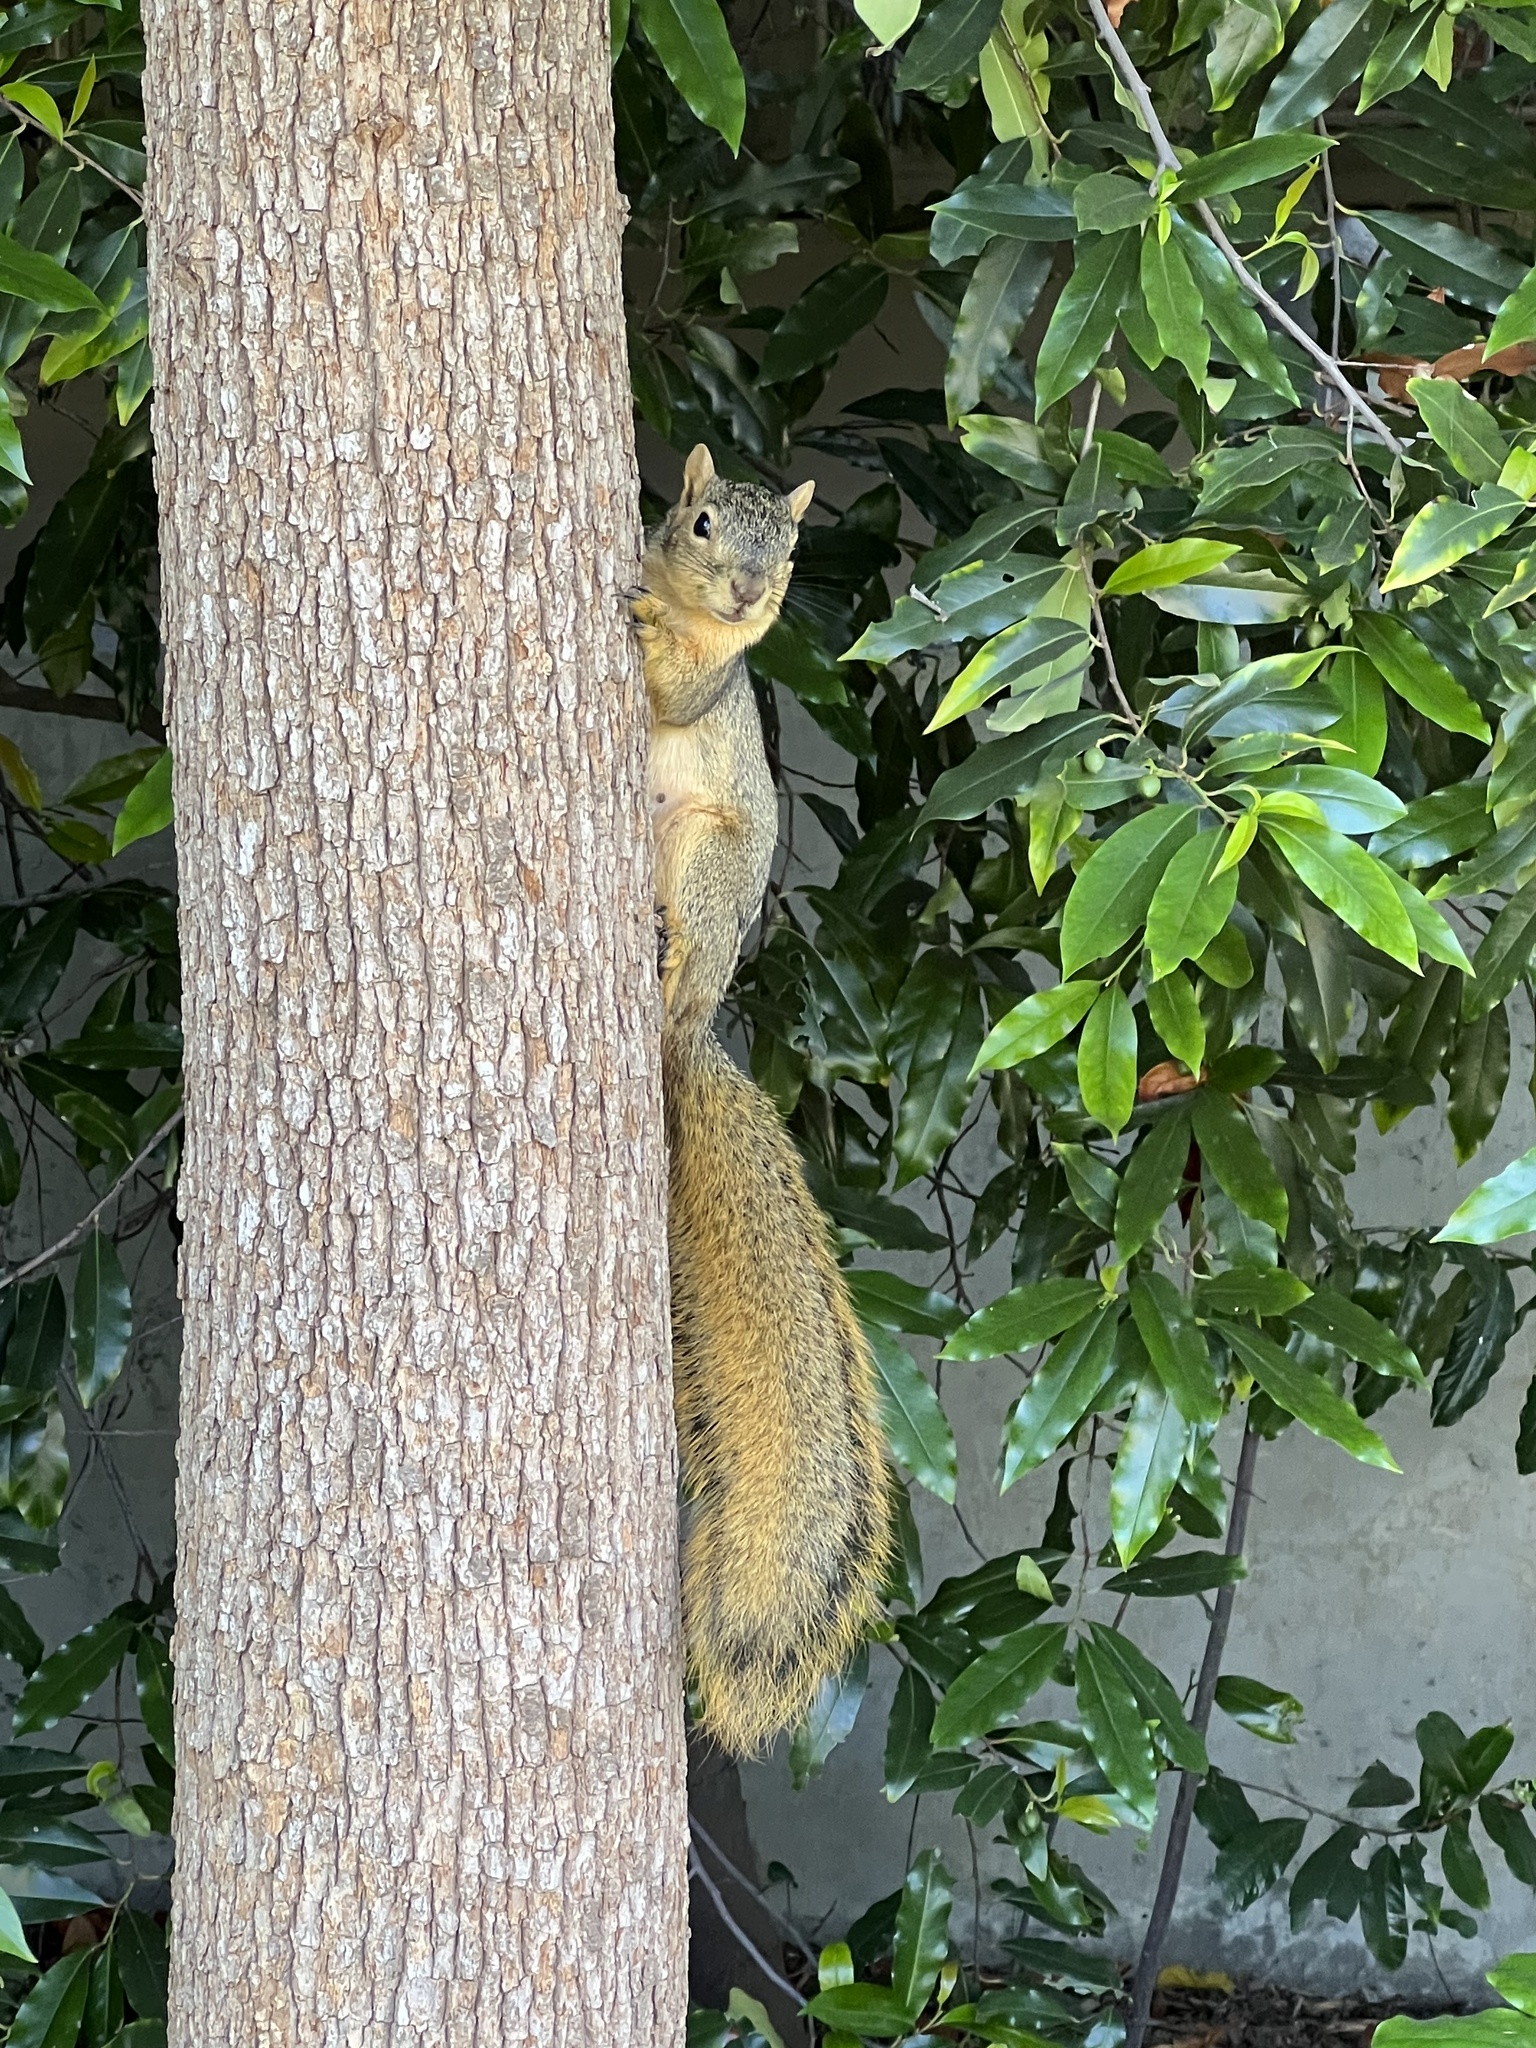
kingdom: Animalia
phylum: Chordata
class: Mammalia
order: Rodentia
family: Sciuridae
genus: Sciurus
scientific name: Sciurus niger
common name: Fox squirrel
